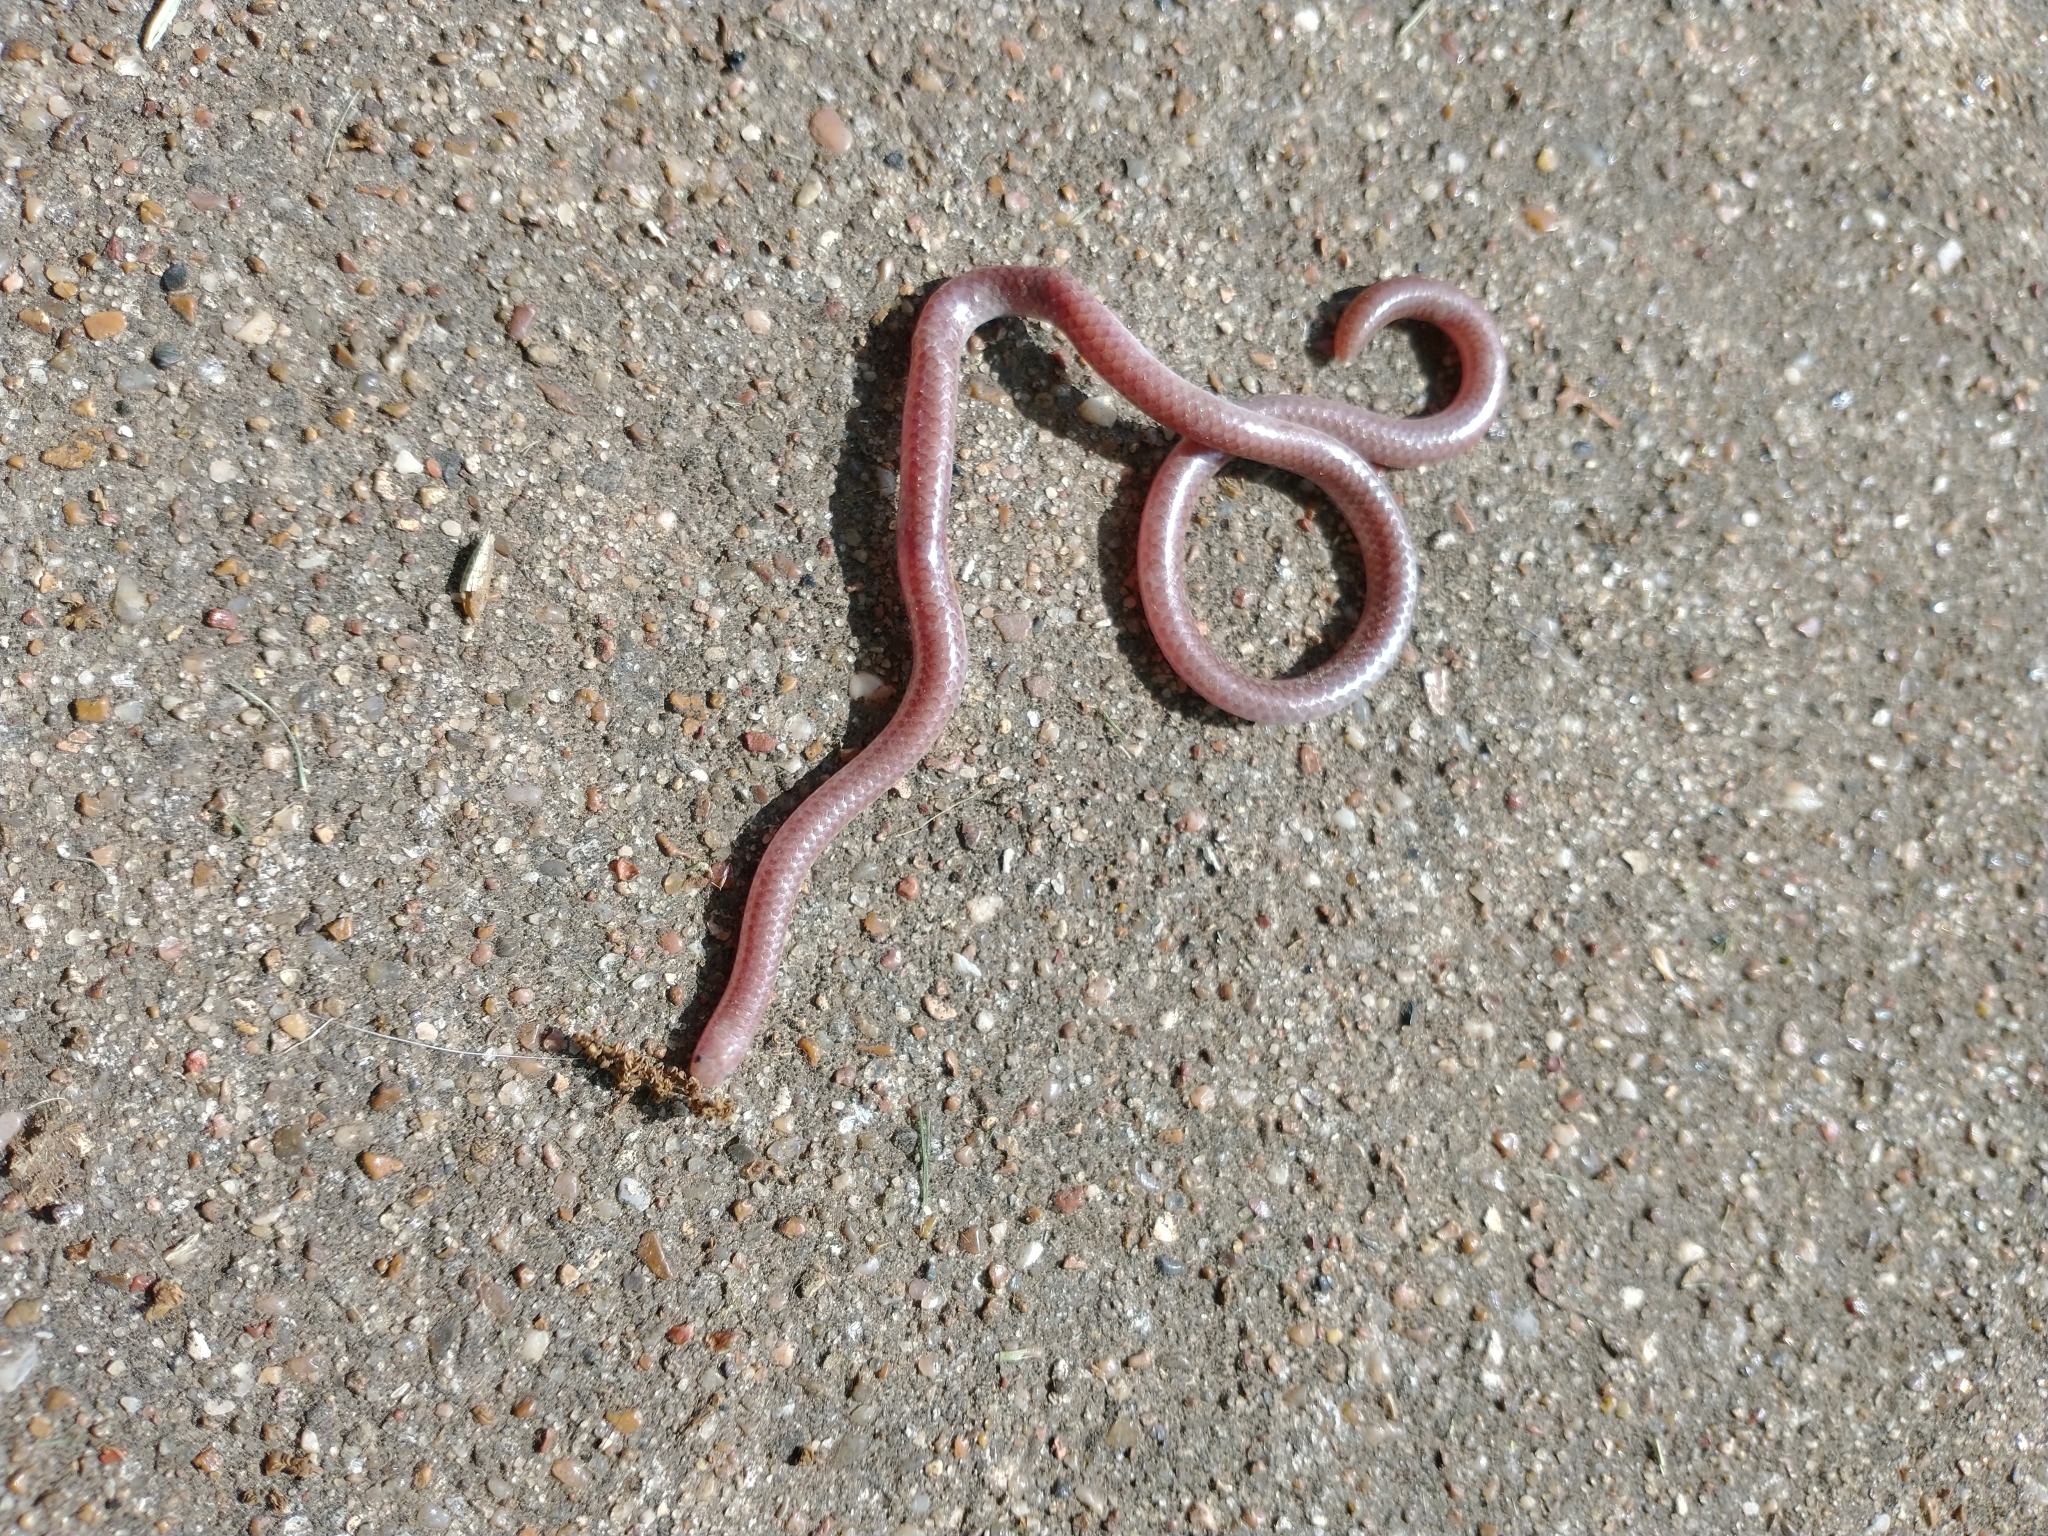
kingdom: Animalia
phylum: Chordata
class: Squamata
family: Leptotyphlopidae
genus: Rena
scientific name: Rena dulcis
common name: Texas blind snake
